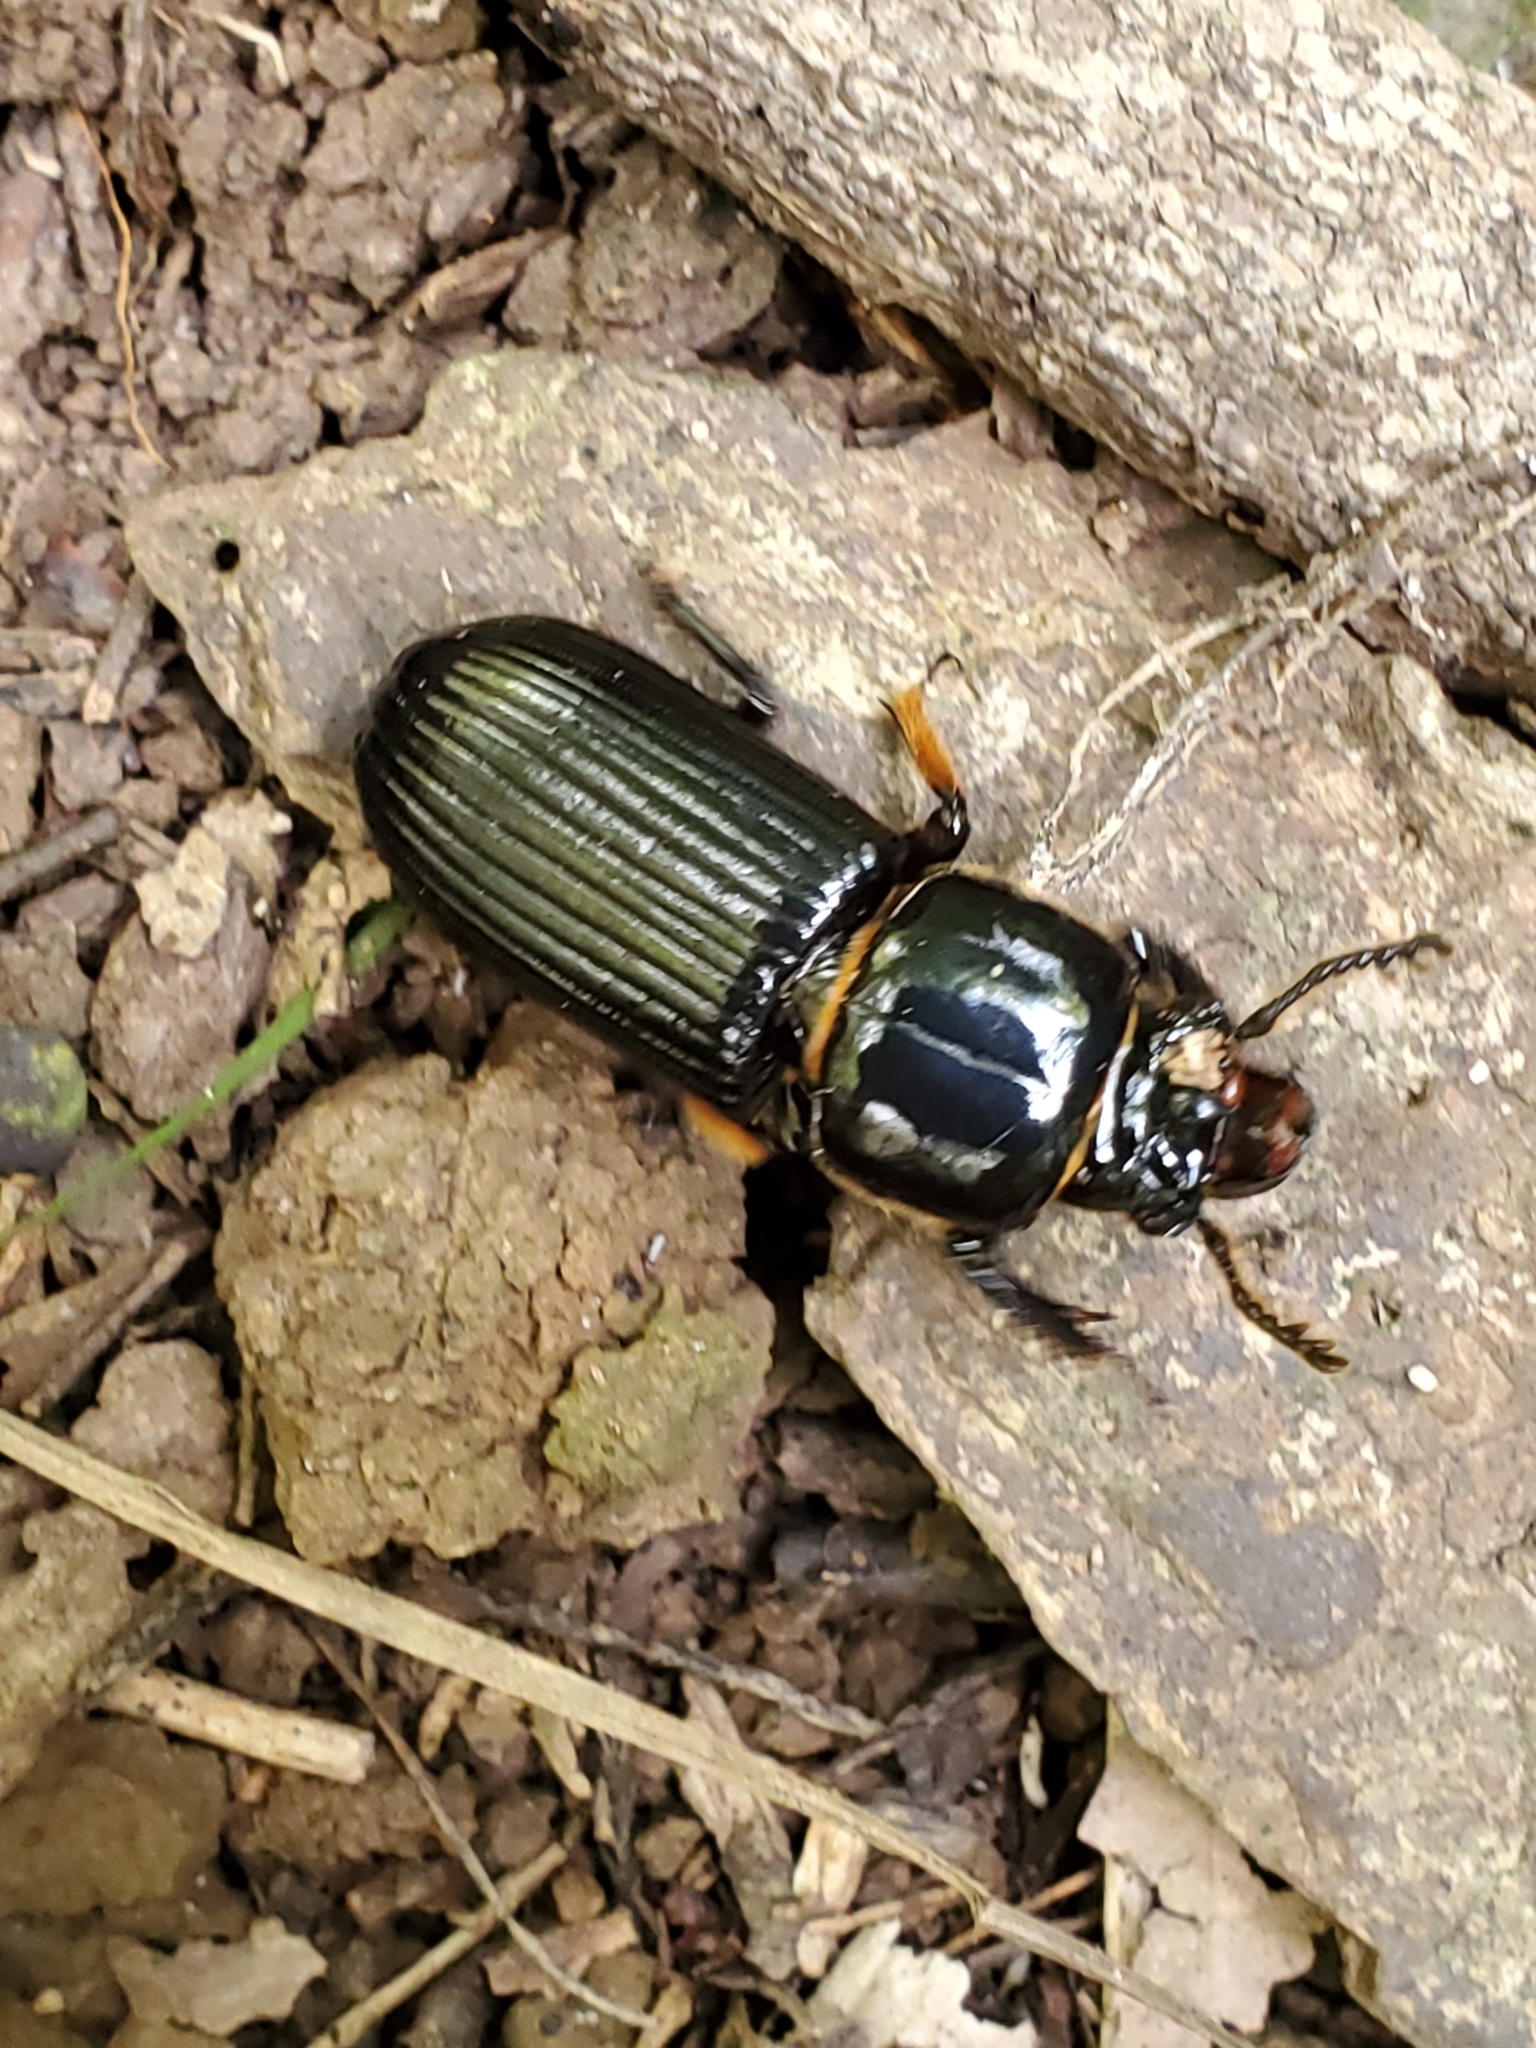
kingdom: Animalia
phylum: Arthropoda
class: Insecta
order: Coleoptera
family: Passalidae
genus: Odontotaenius
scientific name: Odontotaenius disjunctus
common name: Patent leather beetle
